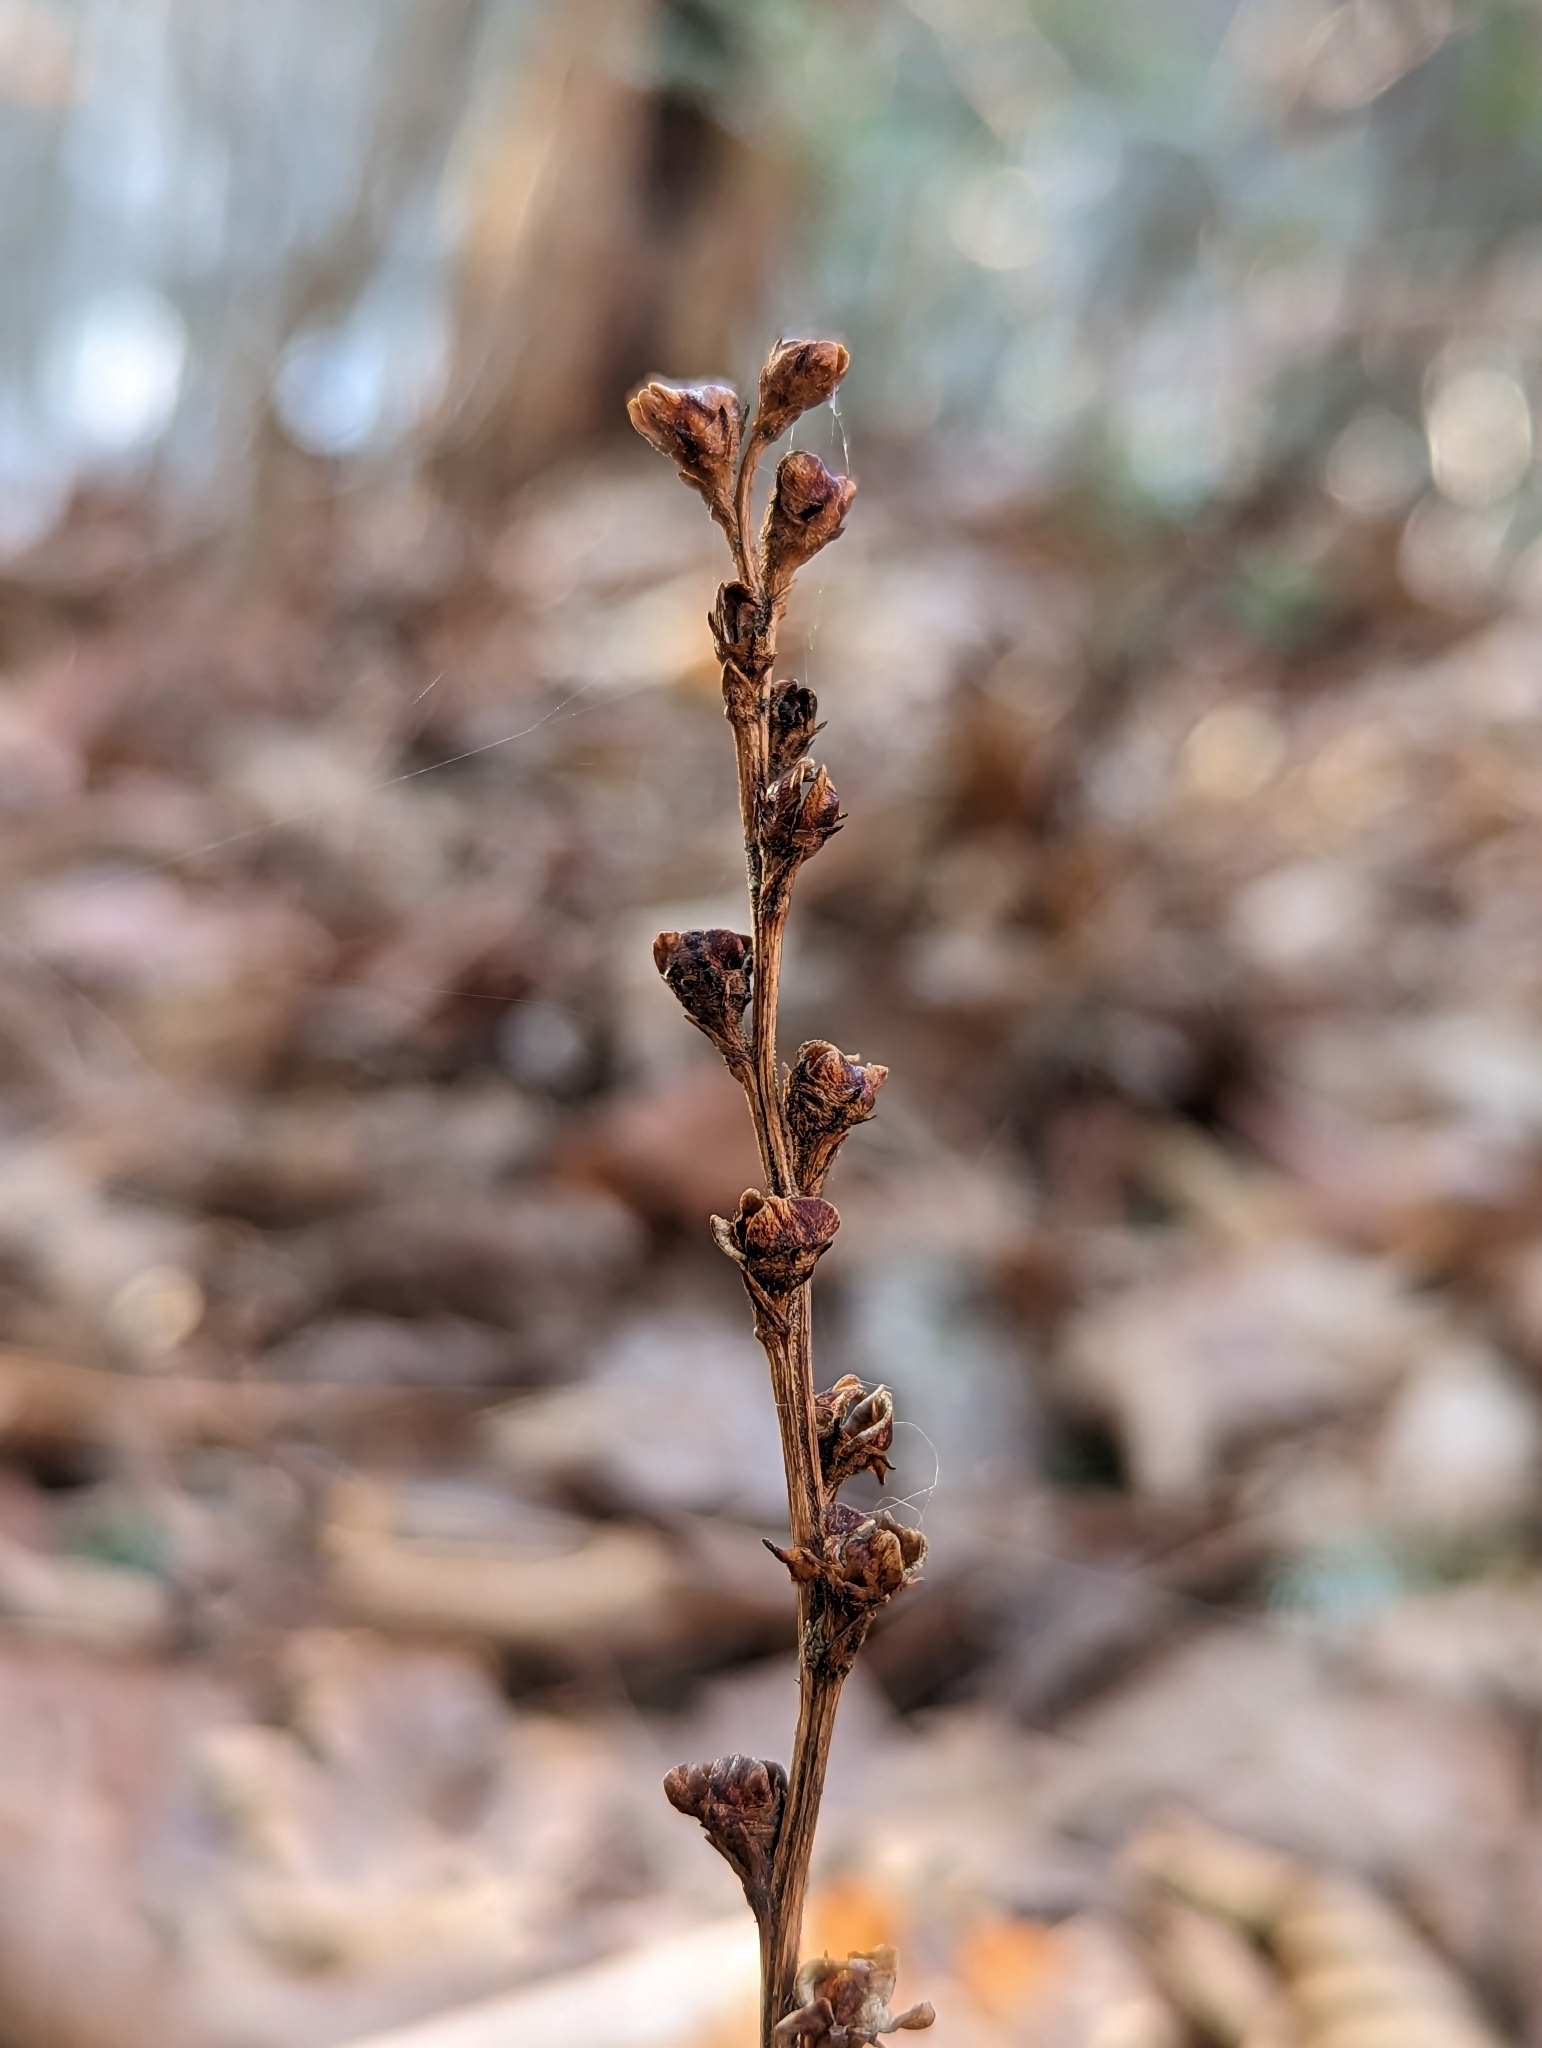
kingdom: Plantae
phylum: Tracheophyta
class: Magnoliopsida
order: Lamiales
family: Orobanchaceae
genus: Epifagus
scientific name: Epifagus virginiana
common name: Beechdrops
